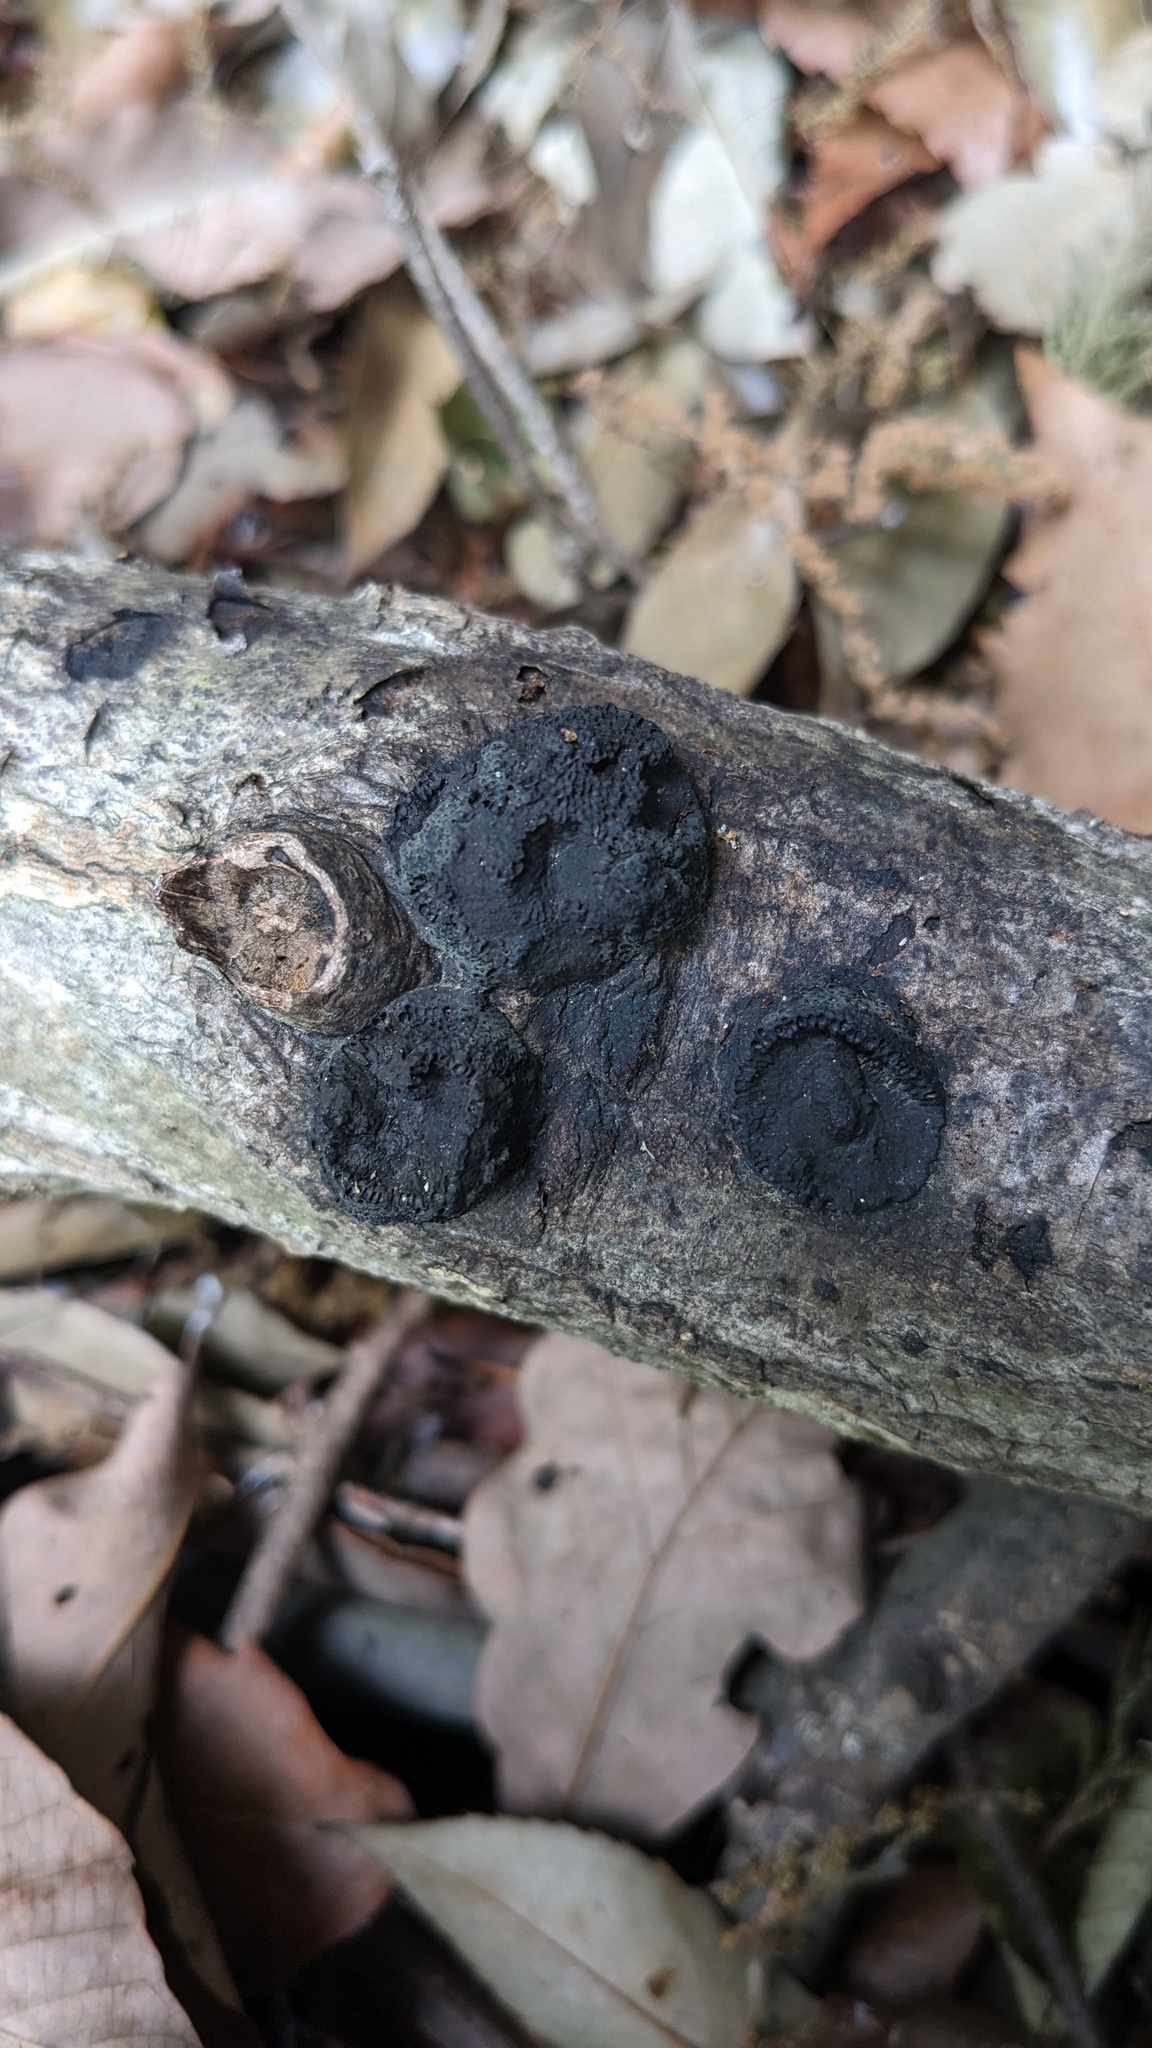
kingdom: Fungi
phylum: Ascomycota
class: Sordariomycetes
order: Xylariales
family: Hypoxylaceae
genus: Annulohypoxylon
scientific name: Annulohypoxylon truncatum
